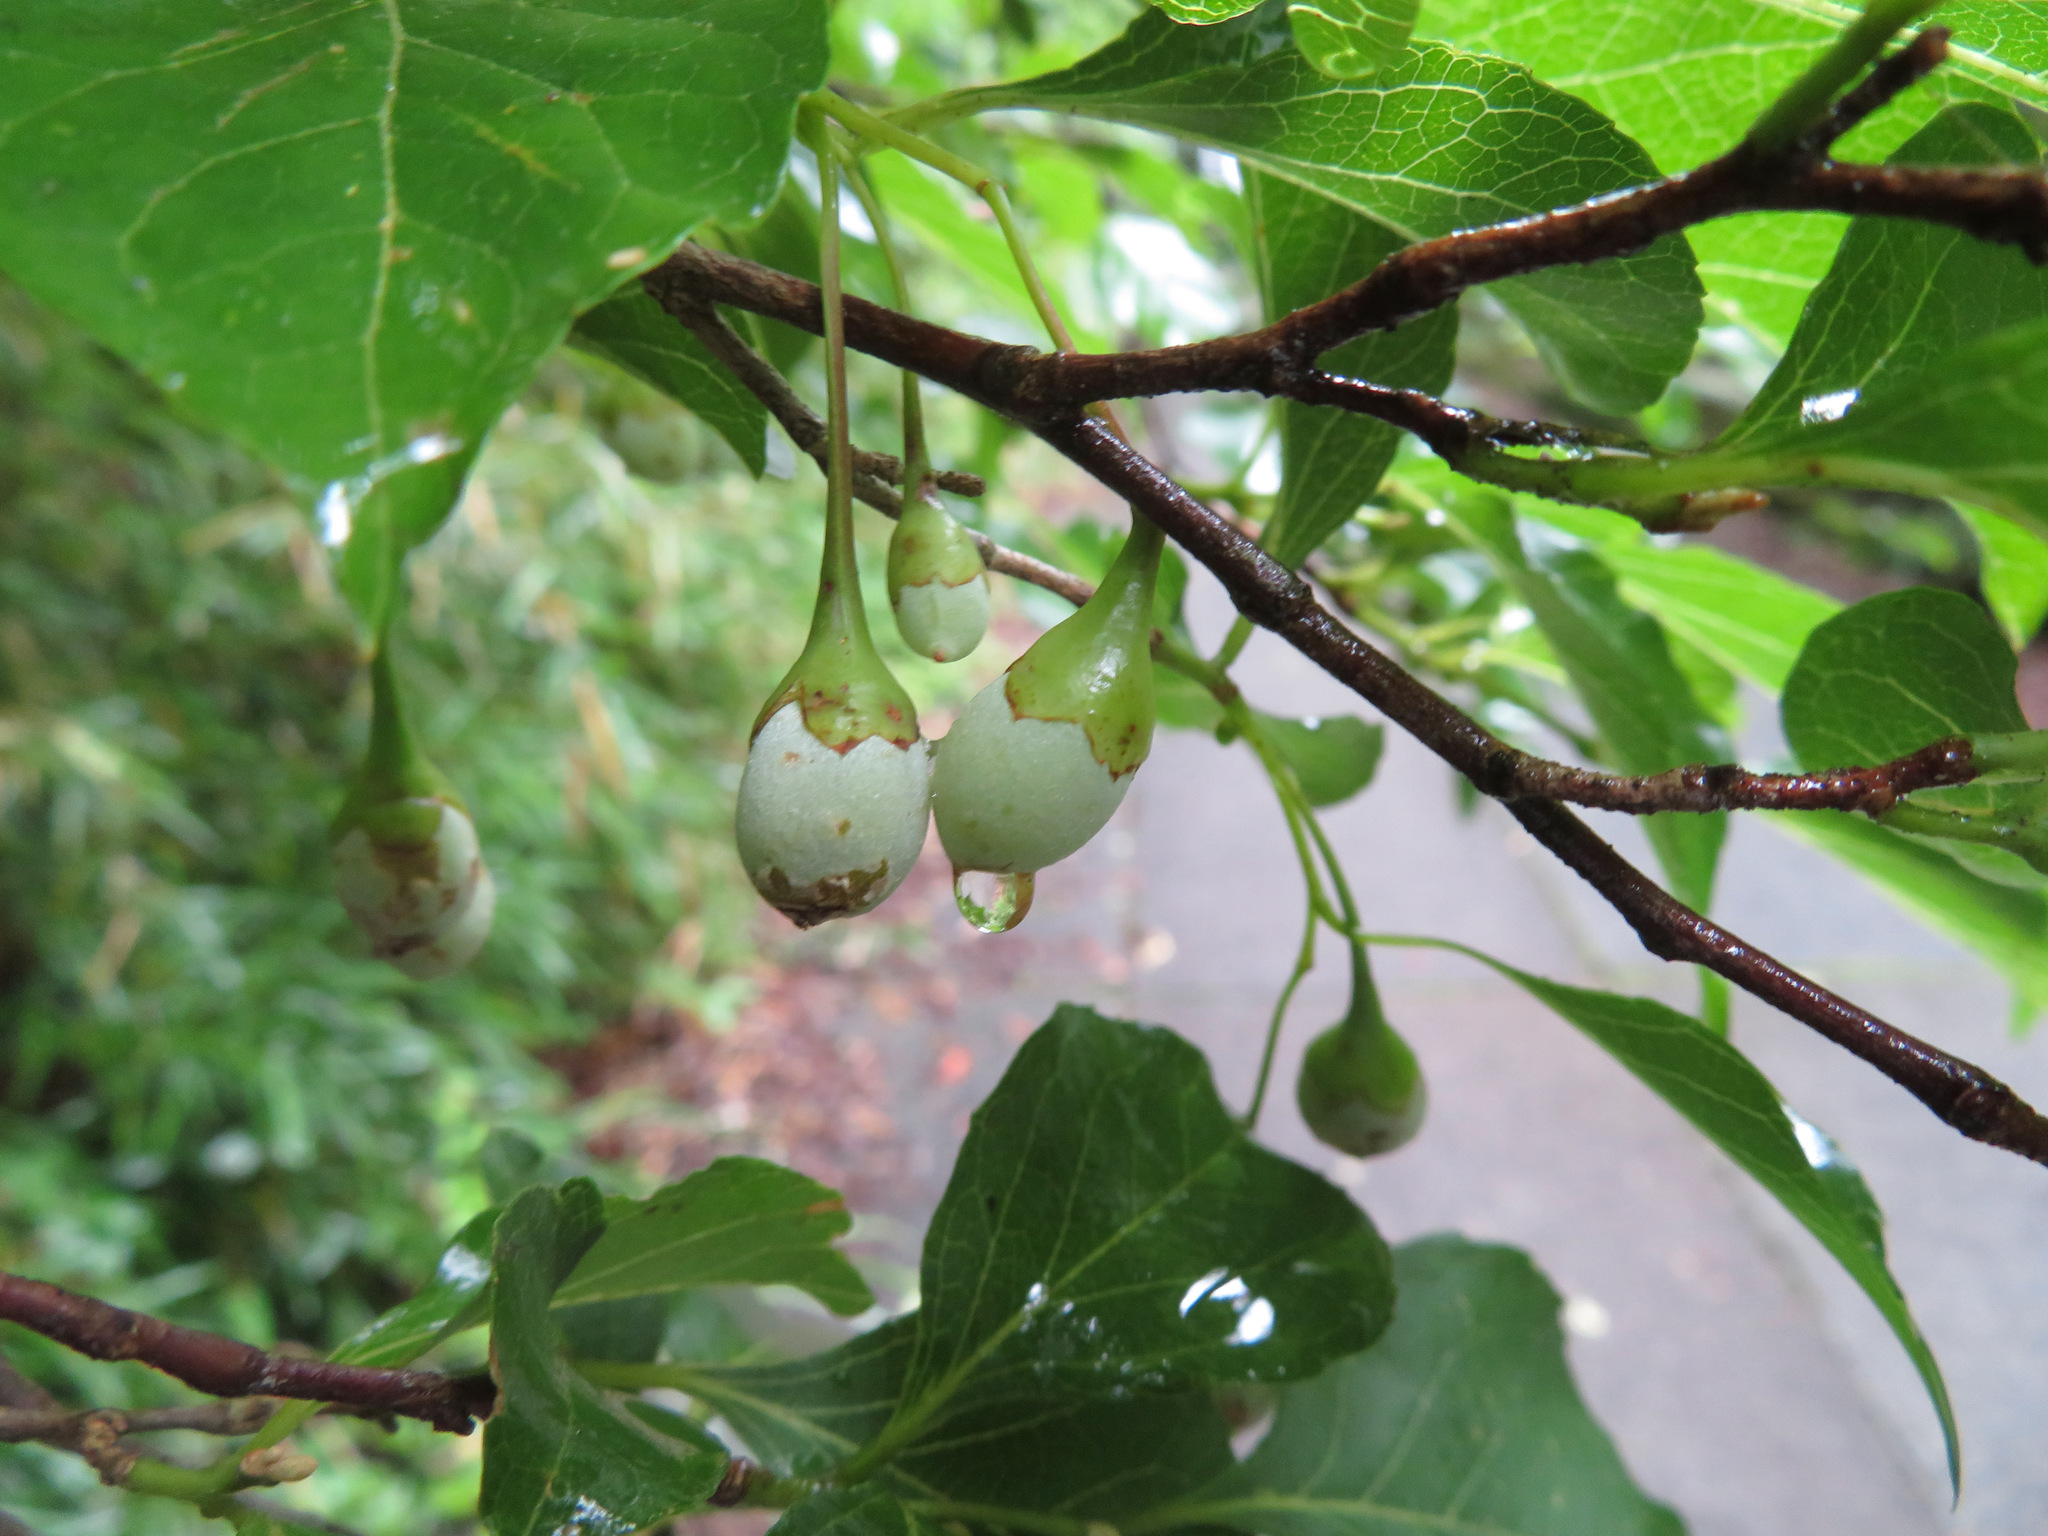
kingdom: Plantae
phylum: Tracheophyta
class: Magnoliopsida
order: Ericales
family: Styracaceae
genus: Styrax
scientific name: Styrax japonicus
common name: Japanese snowbell
